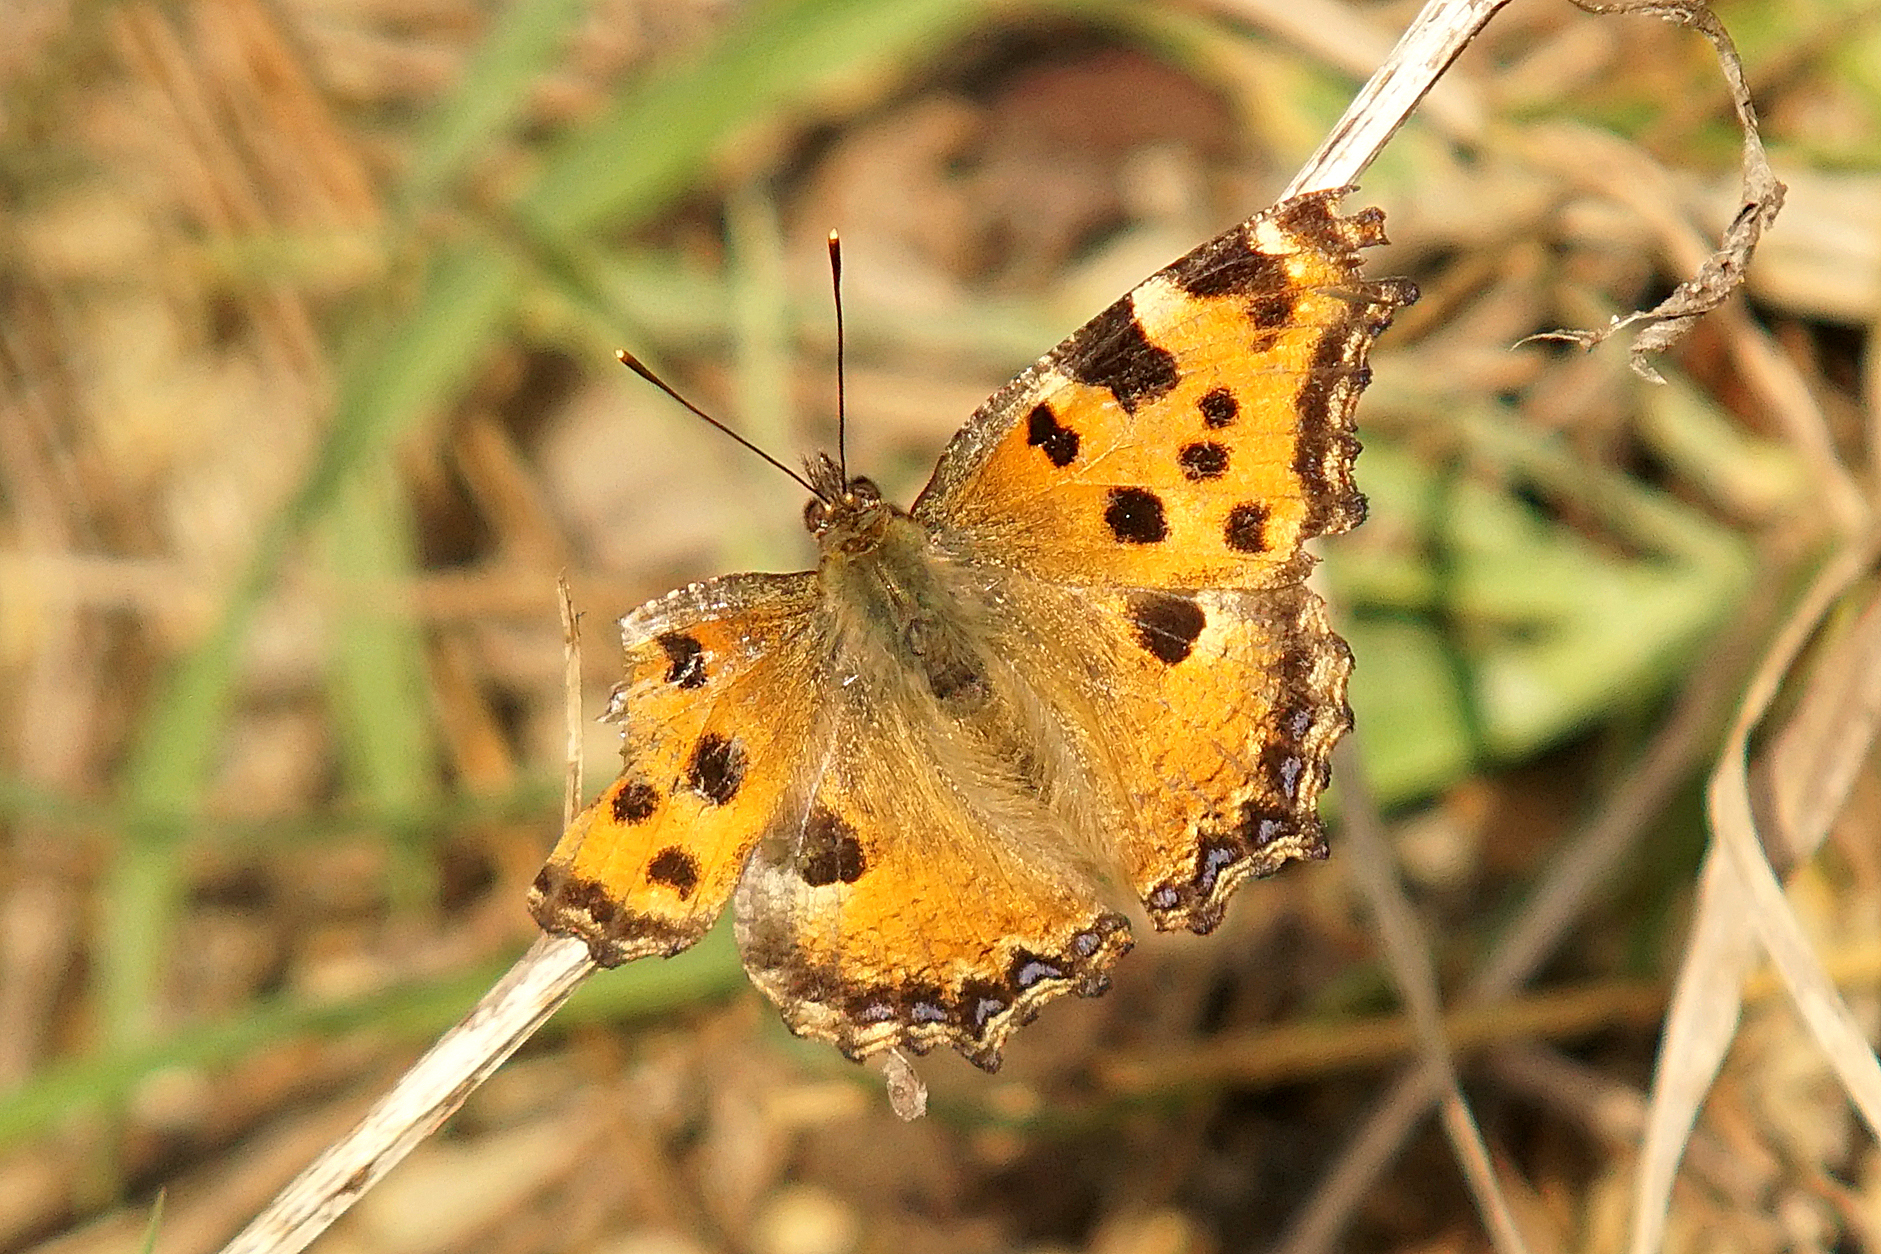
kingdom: Animalia
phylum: Arthropoda
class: Insecta
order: Lepidoptera
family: Nymphalidae
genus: Nymphalis
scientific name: Nymphalis polychloros
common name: Large tortoiseshell
